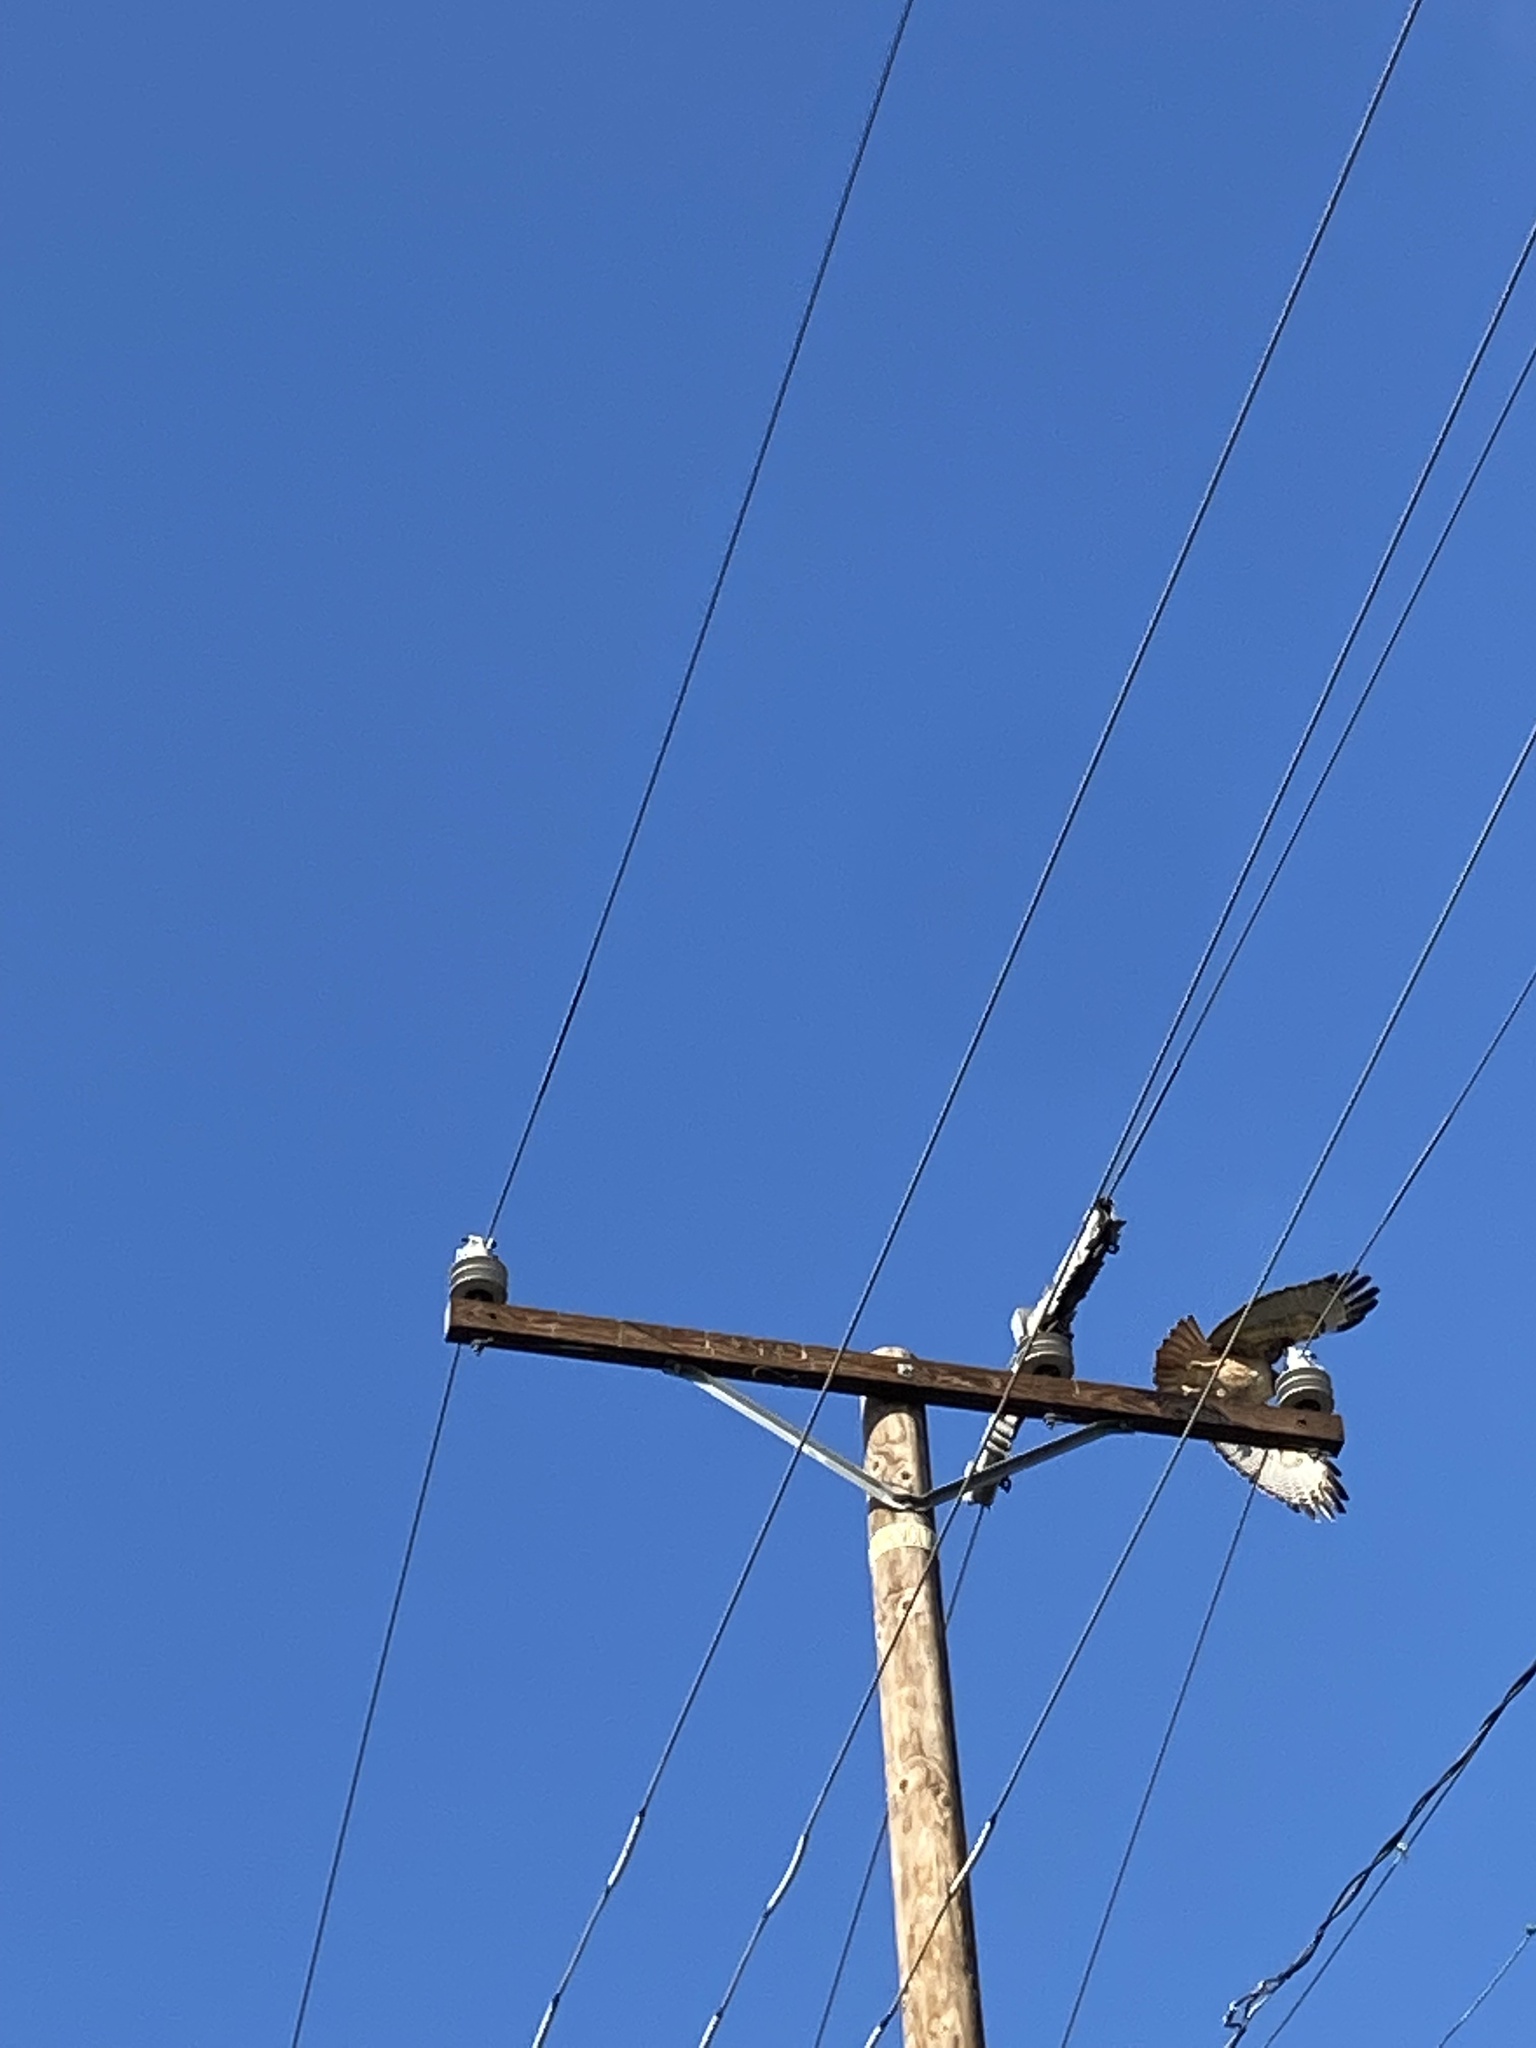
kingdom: Animalia
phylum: Chordata
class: Aves
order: Accipitriformes
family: Accipitridae
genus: Buteo
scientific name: Buteo jamaicensis
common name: Red-tailed hawk
